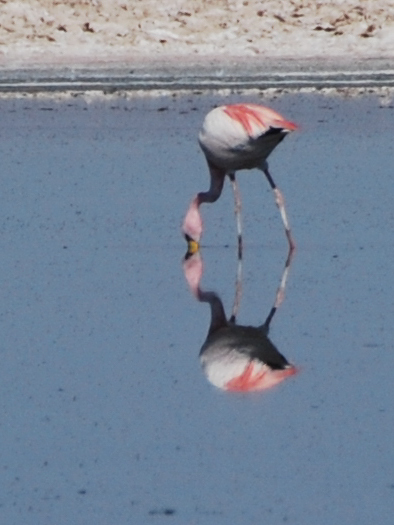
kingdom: Animalia
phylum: Chordata
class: Aves
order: Phoenicopteriformes
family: Phoenicopteridae
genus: Phoenicopterus
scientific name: Phoenicopterus chilensis
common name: Chilean flamingo
